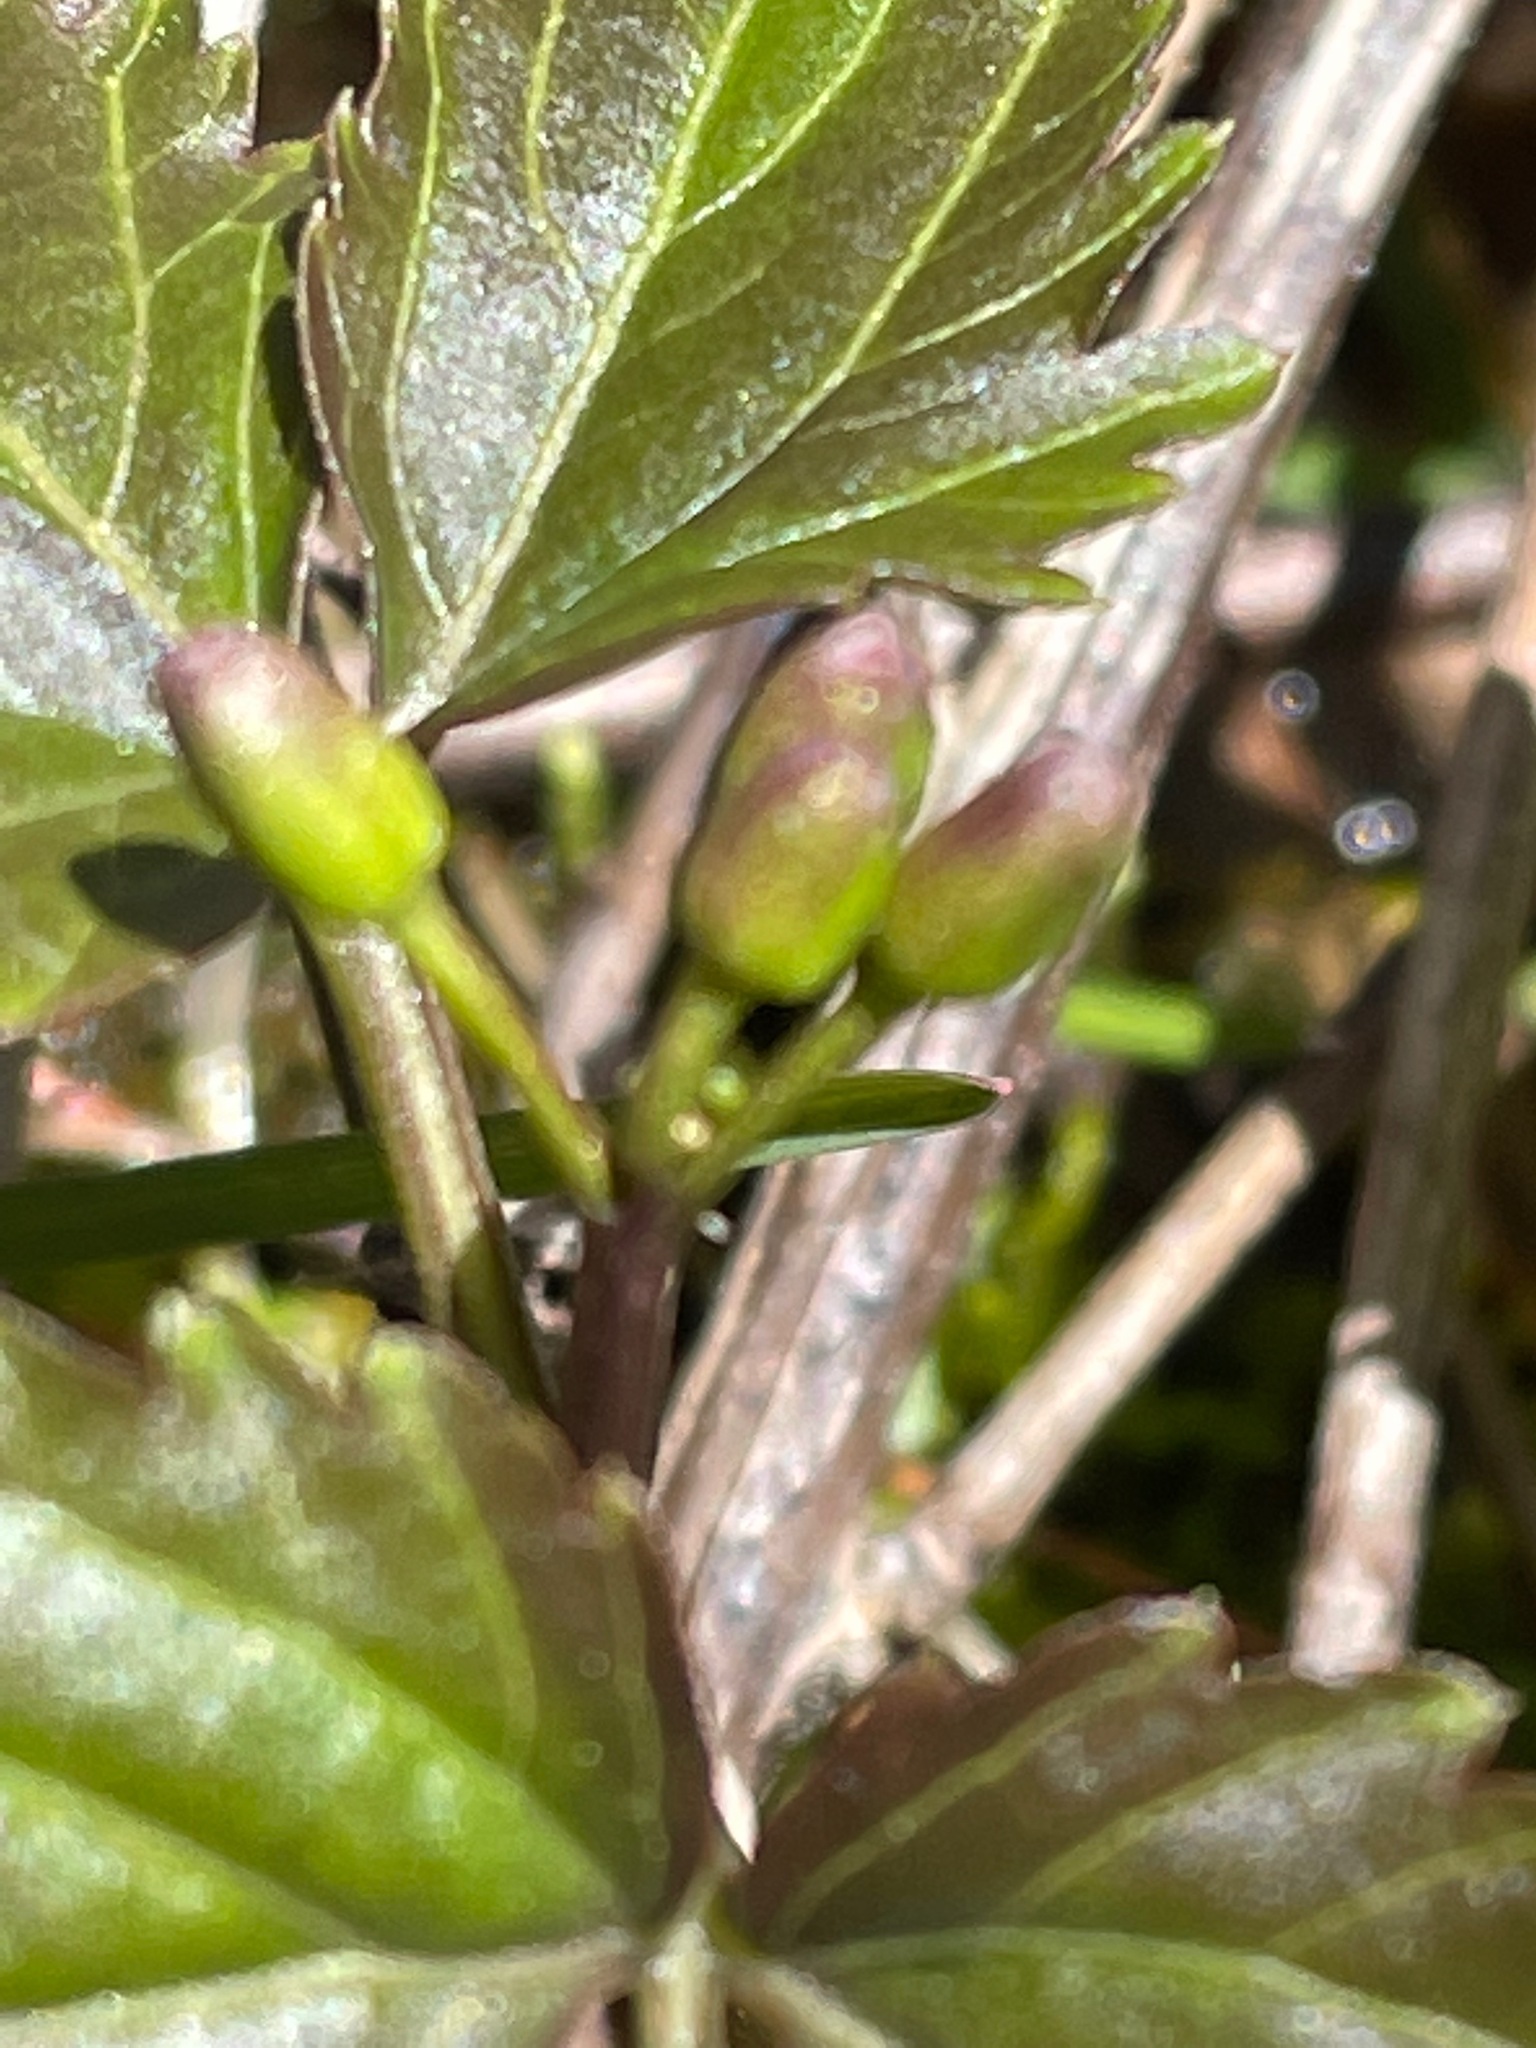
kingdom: Plantae
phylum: Tracheophyta
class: Magnoliopsida
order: Brassicales
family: Brassicaceae
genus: Cardamine
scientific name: Cardamine diphylla
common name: Broad-leaved toothwort
